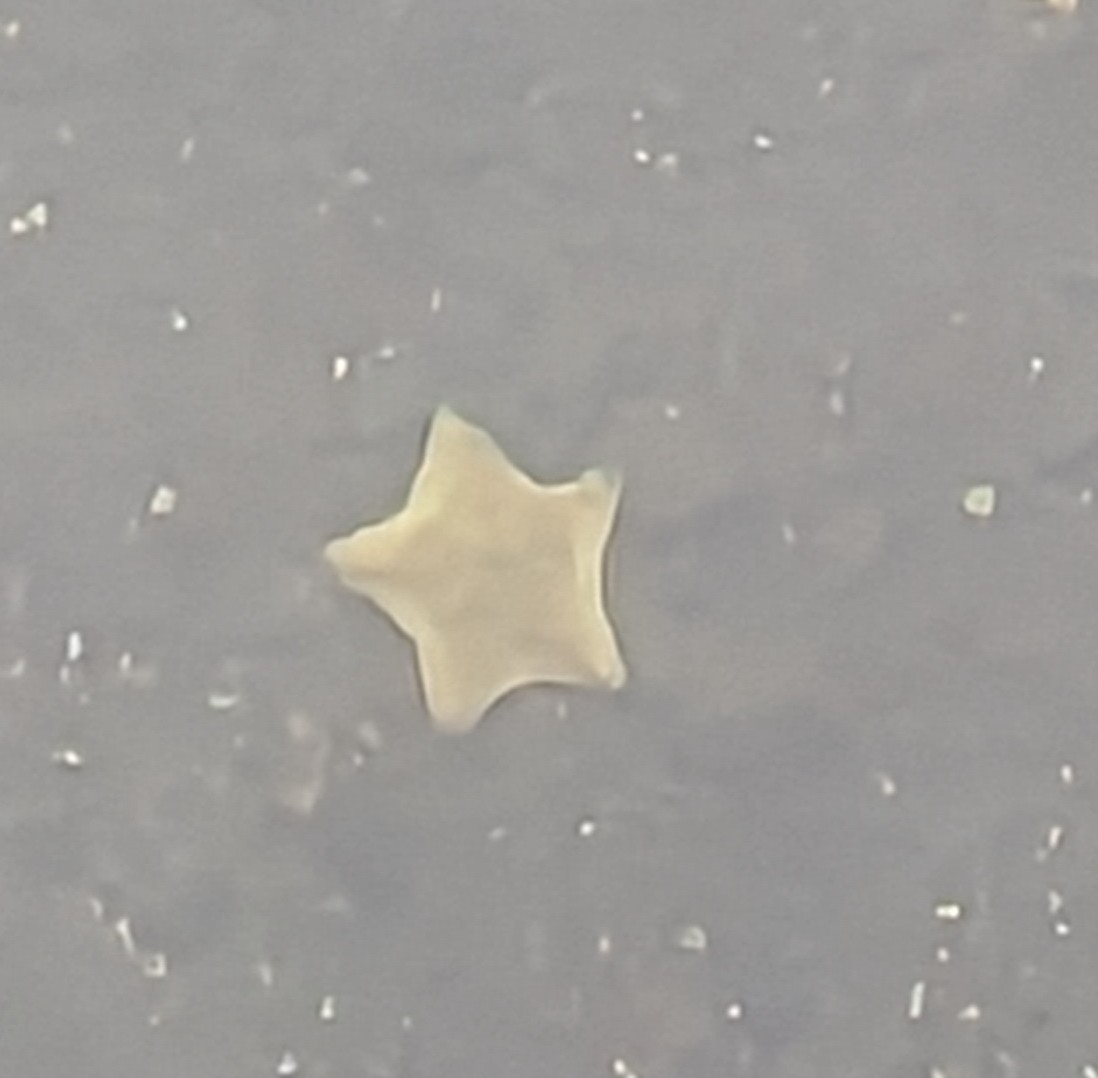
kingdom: Animalia
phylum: Echinodermata
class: Asteroidea
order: Valvatida
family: Asterinidae
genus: Patiriella
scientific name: Patiriella regularis
